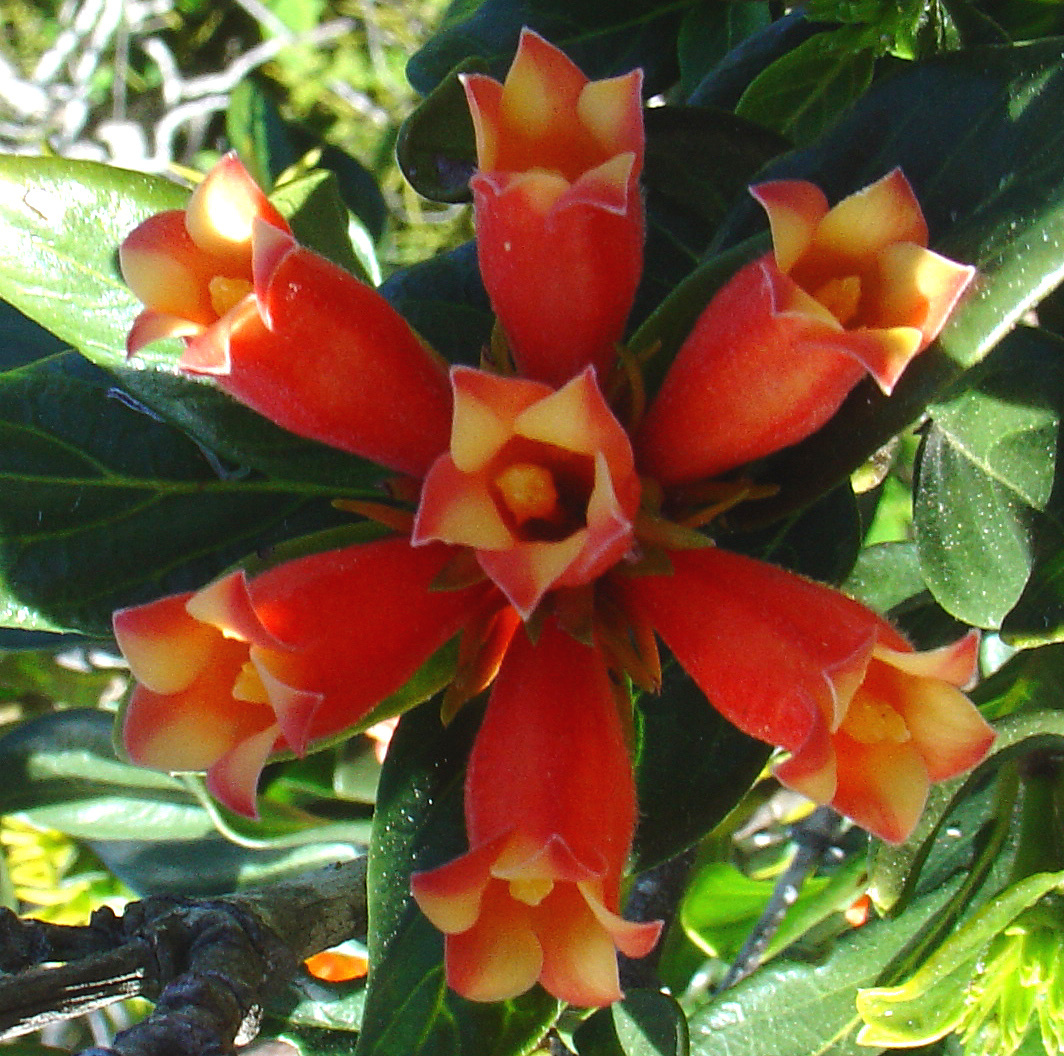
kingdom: Plantae
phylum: Tracheophyta
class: Magnoliopsida
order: Gentianales
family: Rubiaceae
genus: Burchellia
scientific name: Burchellia bubalina
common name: Wild pomegranate
